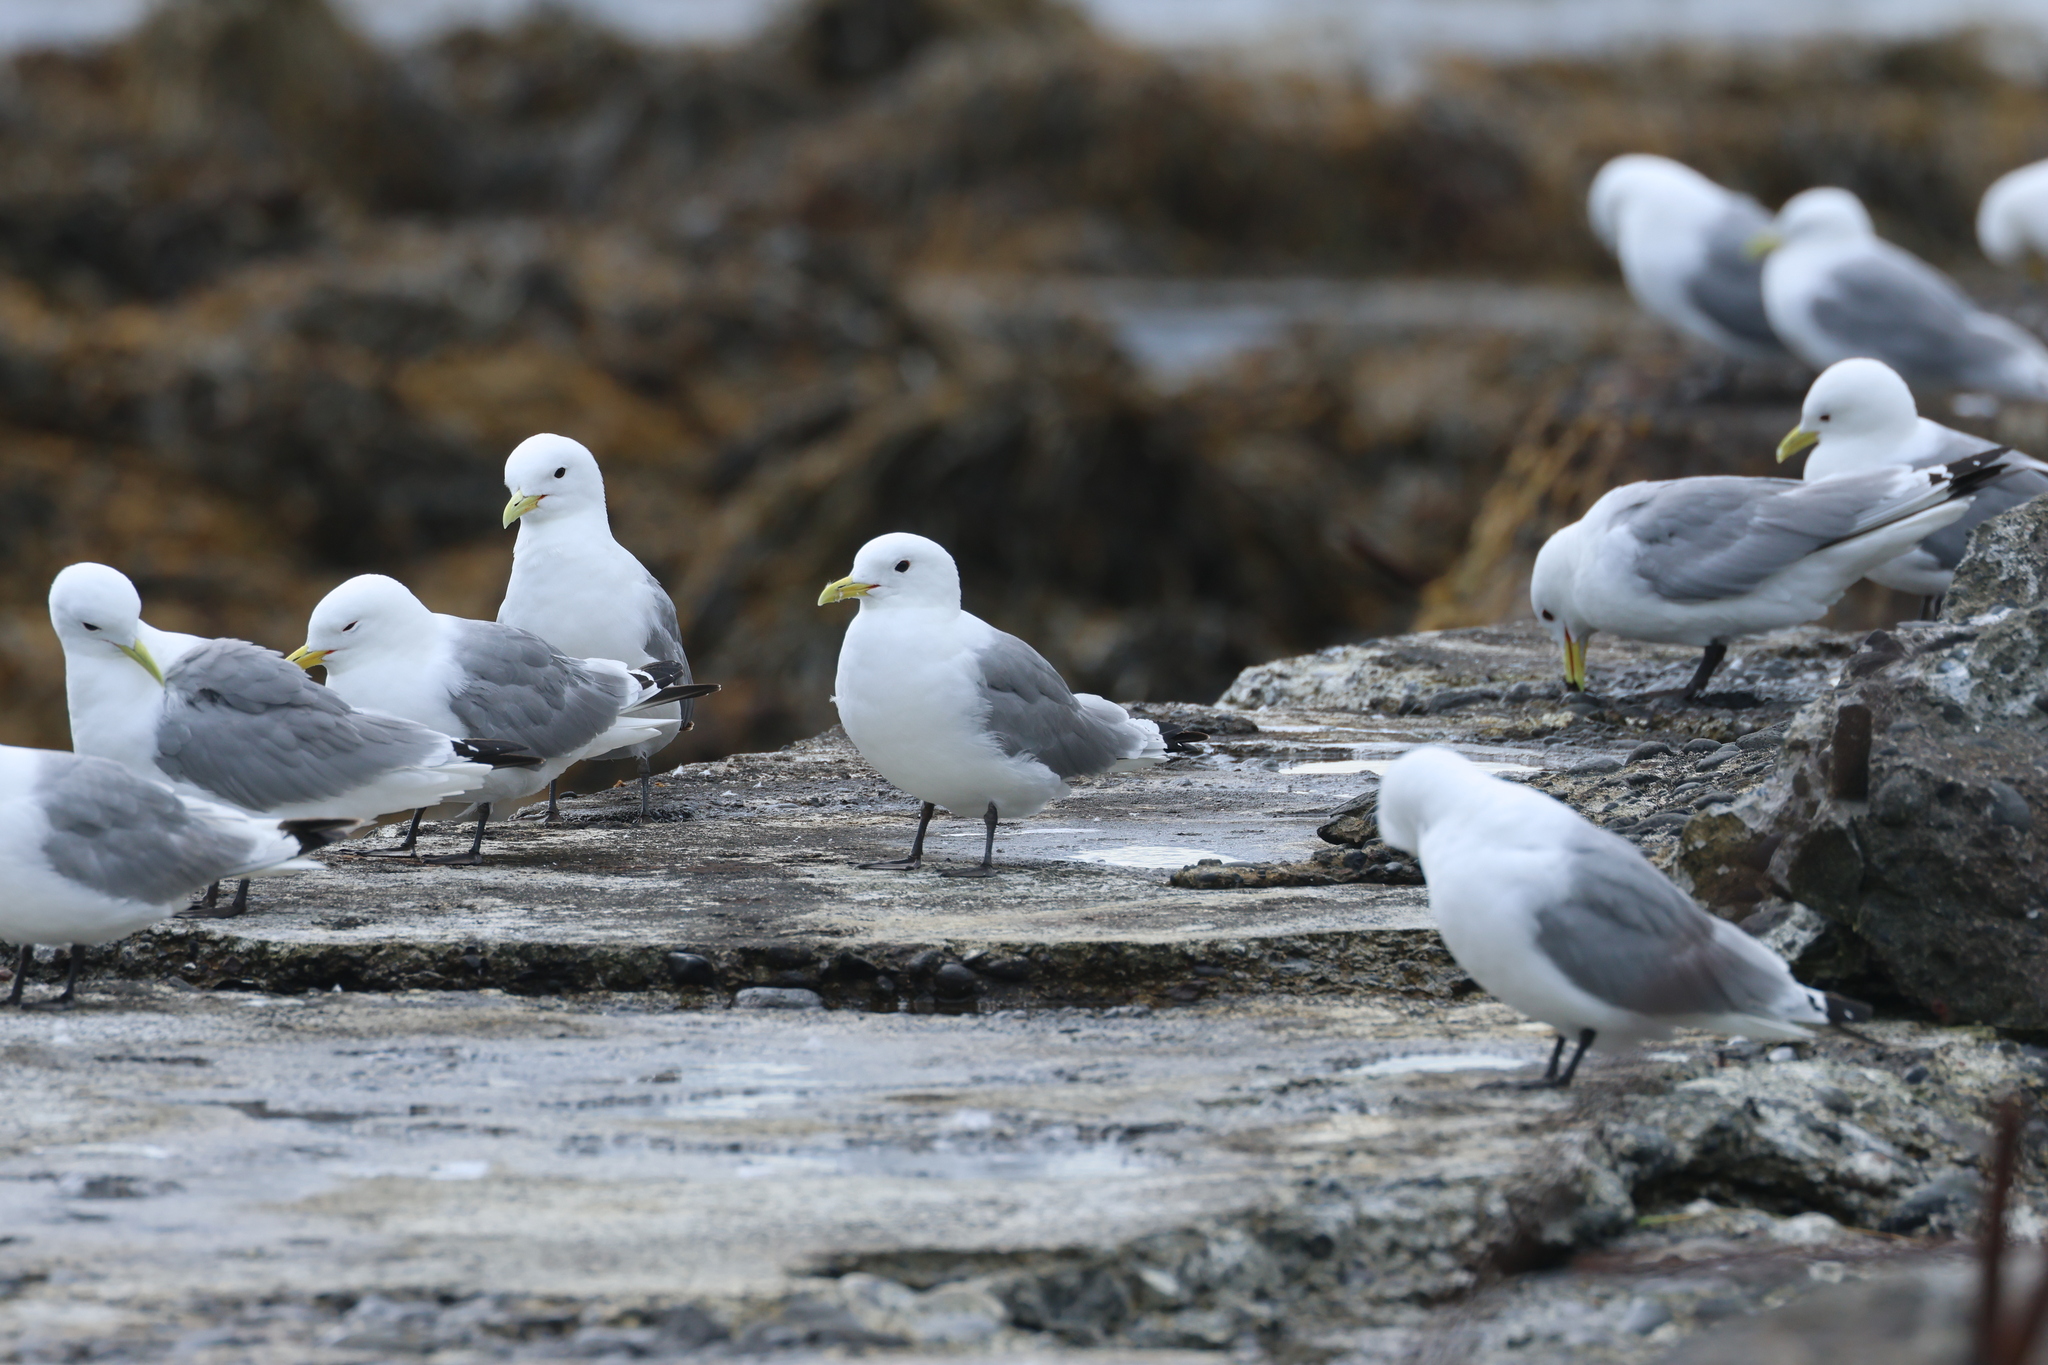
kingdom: Animalia
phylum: Chordata
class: Aves
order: Charadriiformes
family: Laridae
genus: Rissa
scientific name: Rissa tridactyla
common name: Black-legged kittiwake
